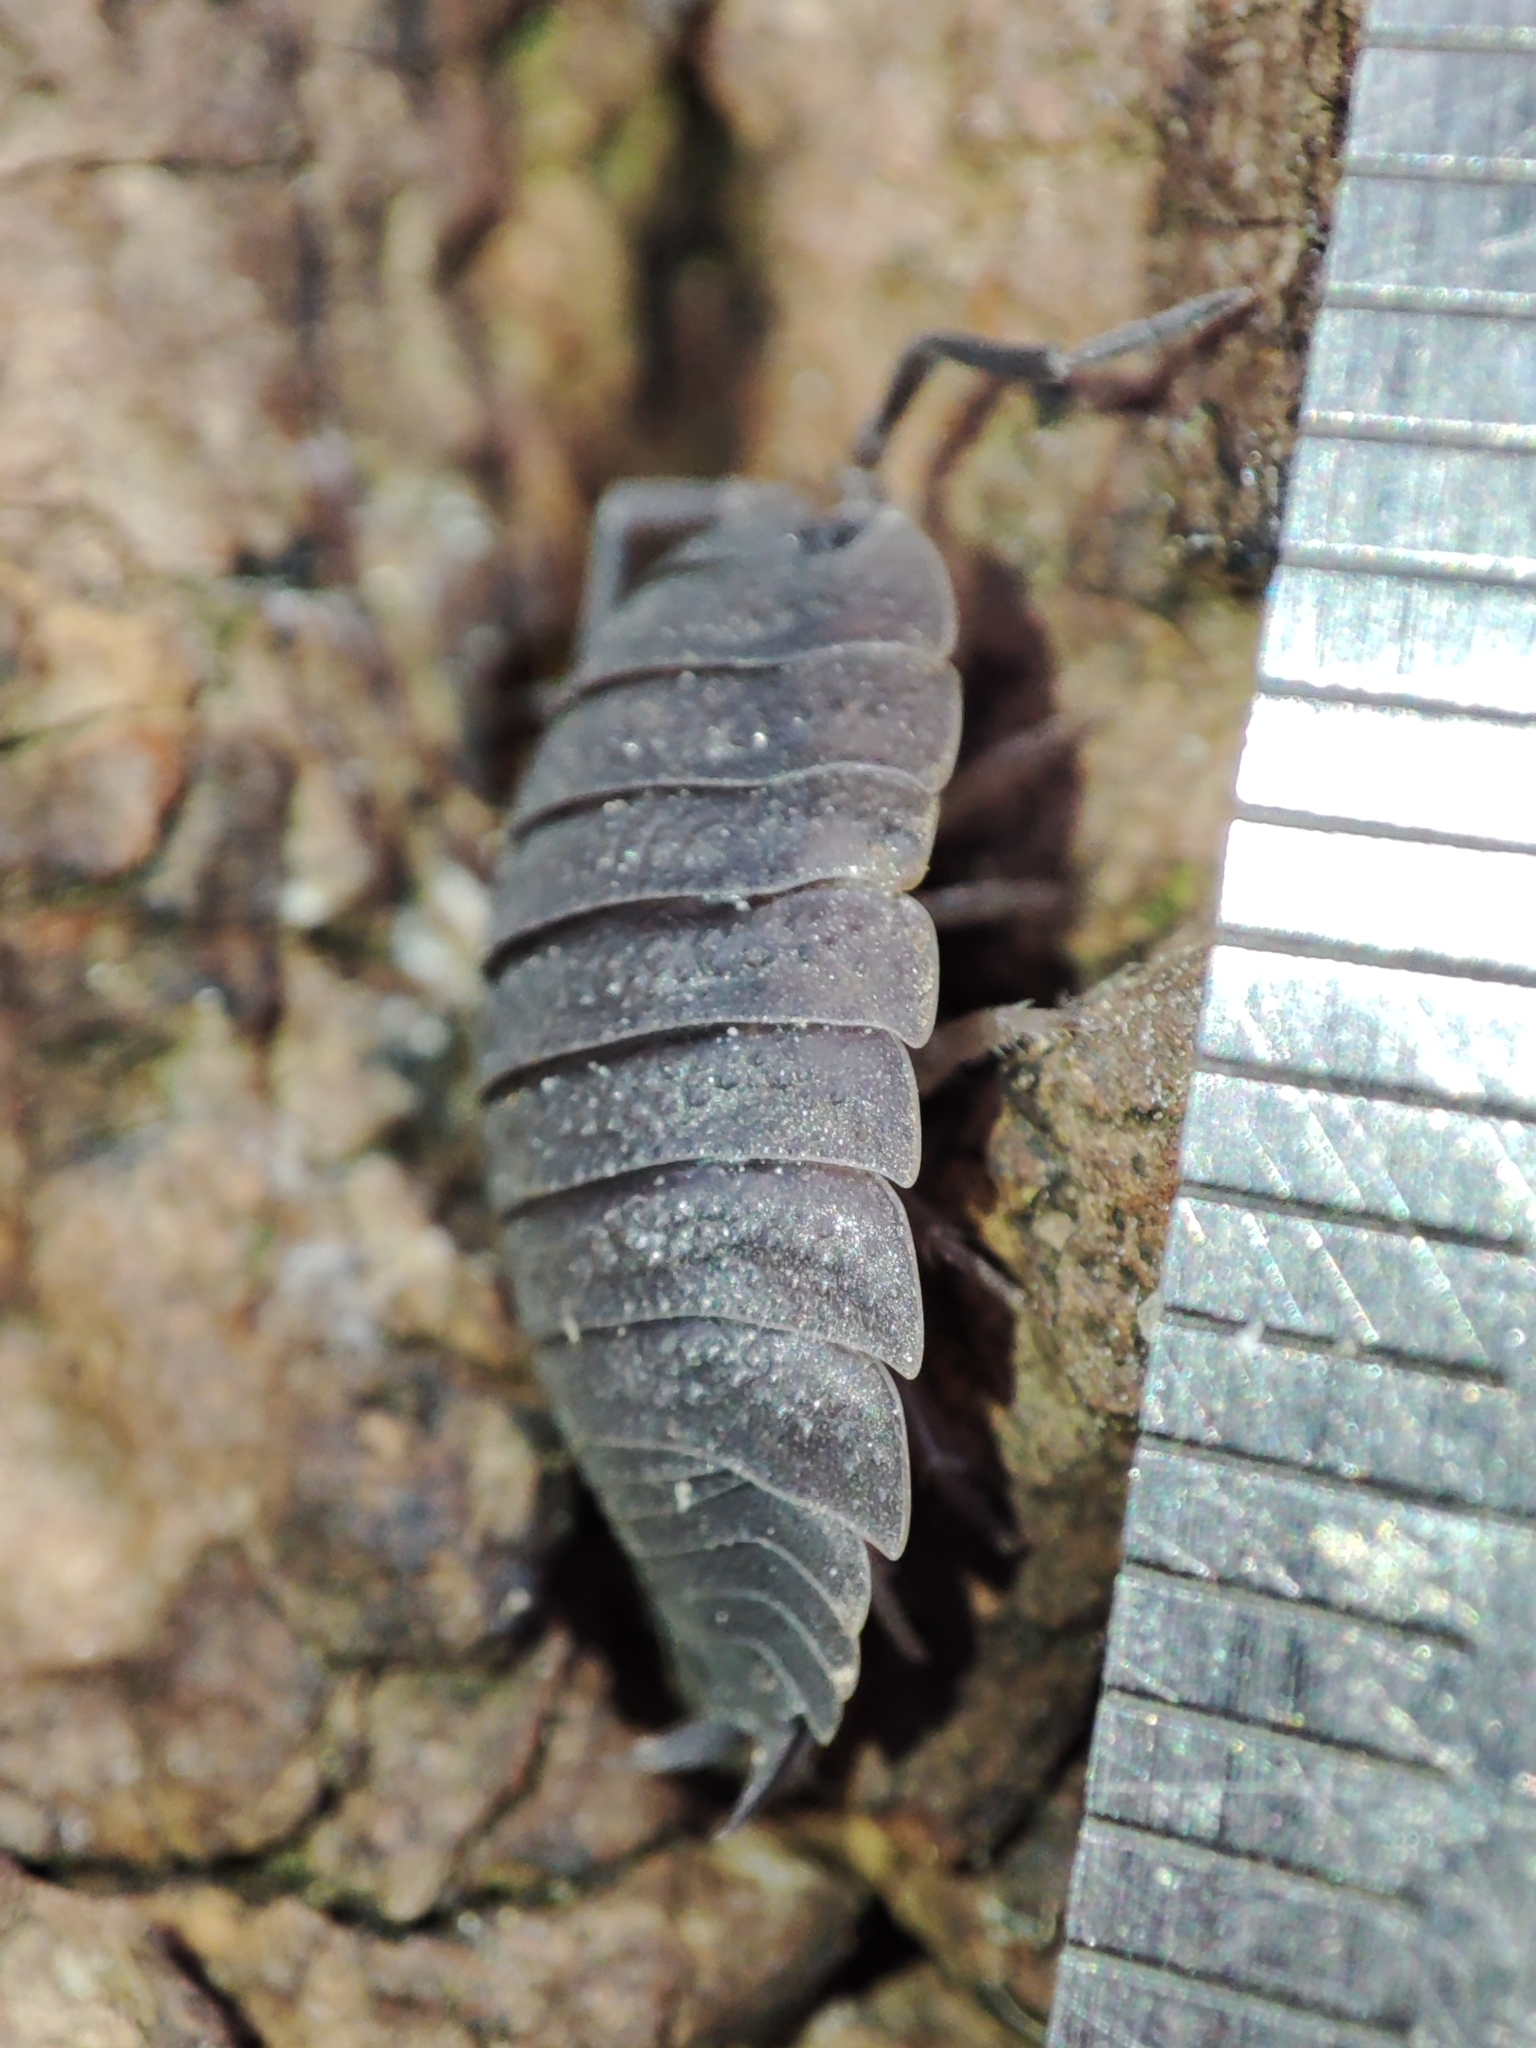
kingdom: Animalia
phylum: Arthropoda
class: Malacostraca
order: Isopoda
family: Porcellionidae
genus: Porcellio
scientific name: Porcellio scaber
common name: Common rough woodlouse
